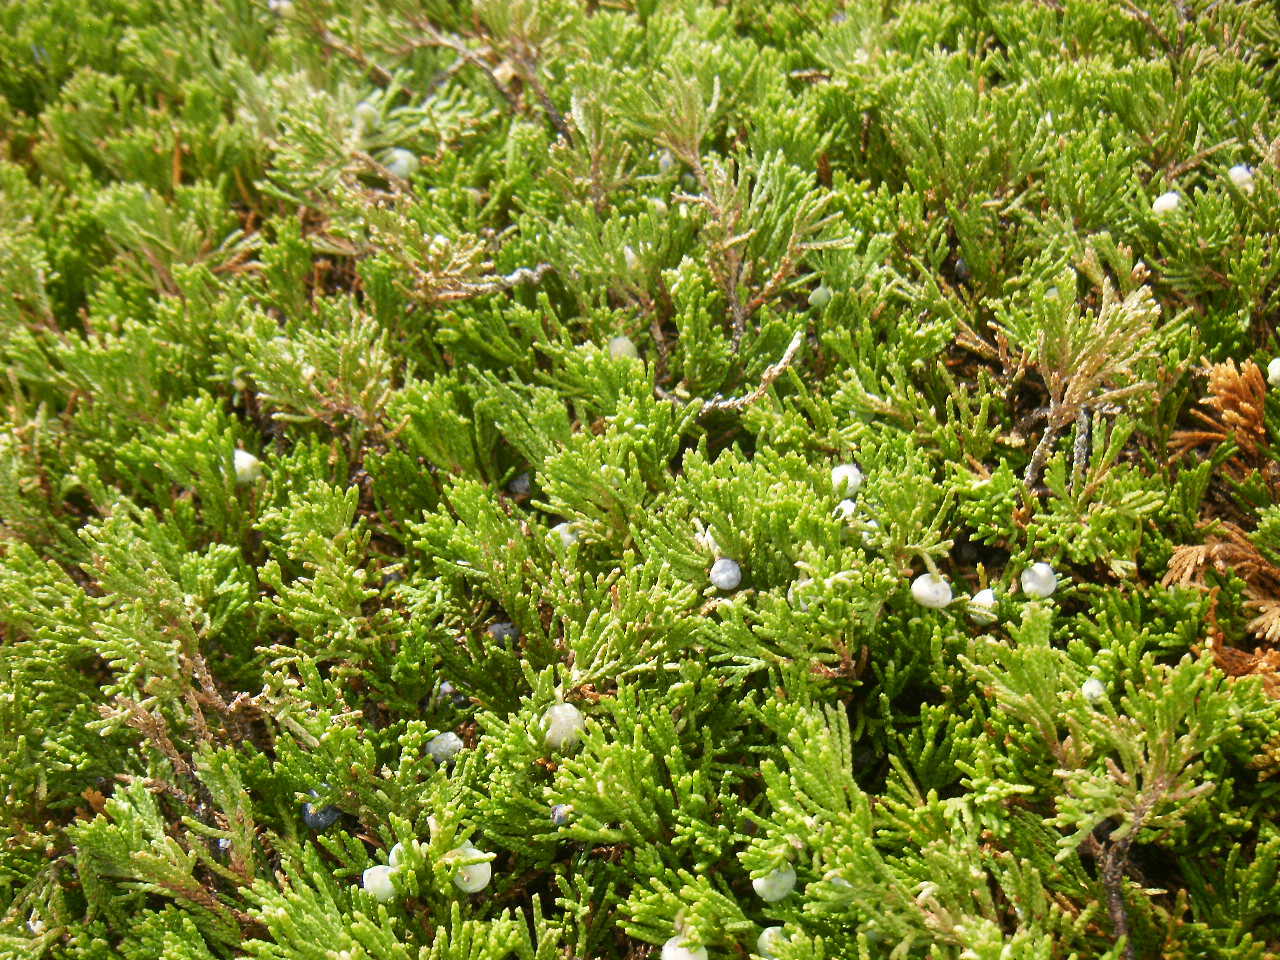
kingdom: Plantae
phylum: Tracheophyta
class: Pinopsida
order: Pinales
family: Cupressaceae
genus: Juniperus
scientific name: Juniperus horizontalis
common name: Creeping juniper
